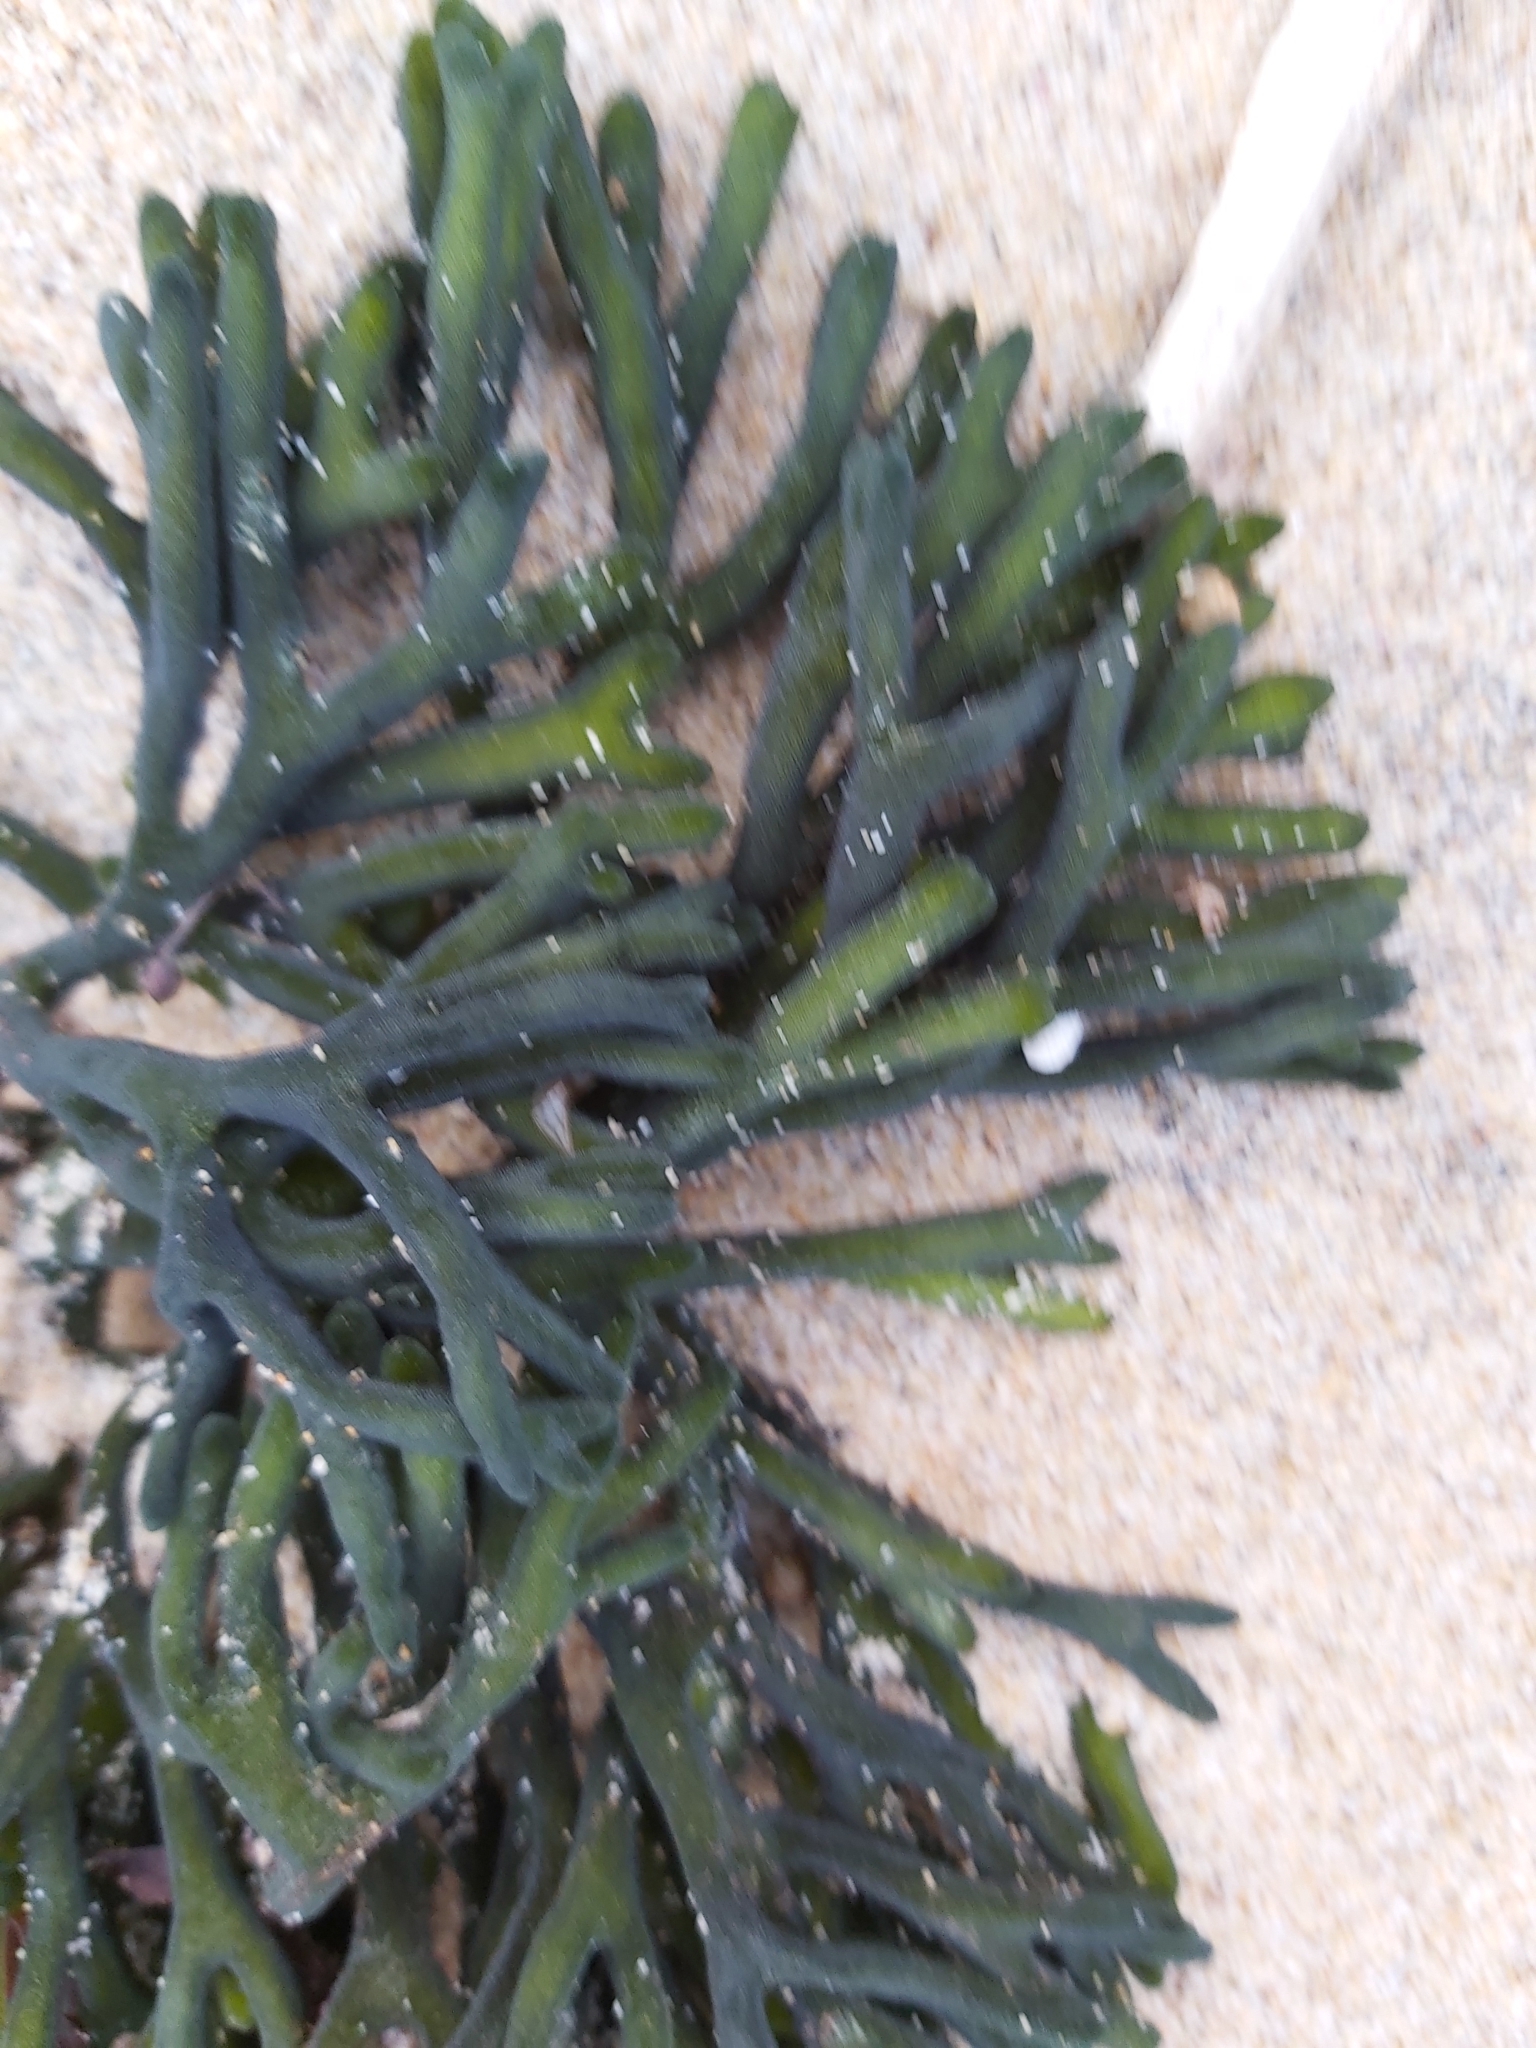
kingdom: Plantae
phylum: Chlorophyta
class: Ulvophyceae
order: Bryopsidales
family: Codiaceae
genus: Codium
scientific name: Codium fragile
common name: Dead man's fingers
